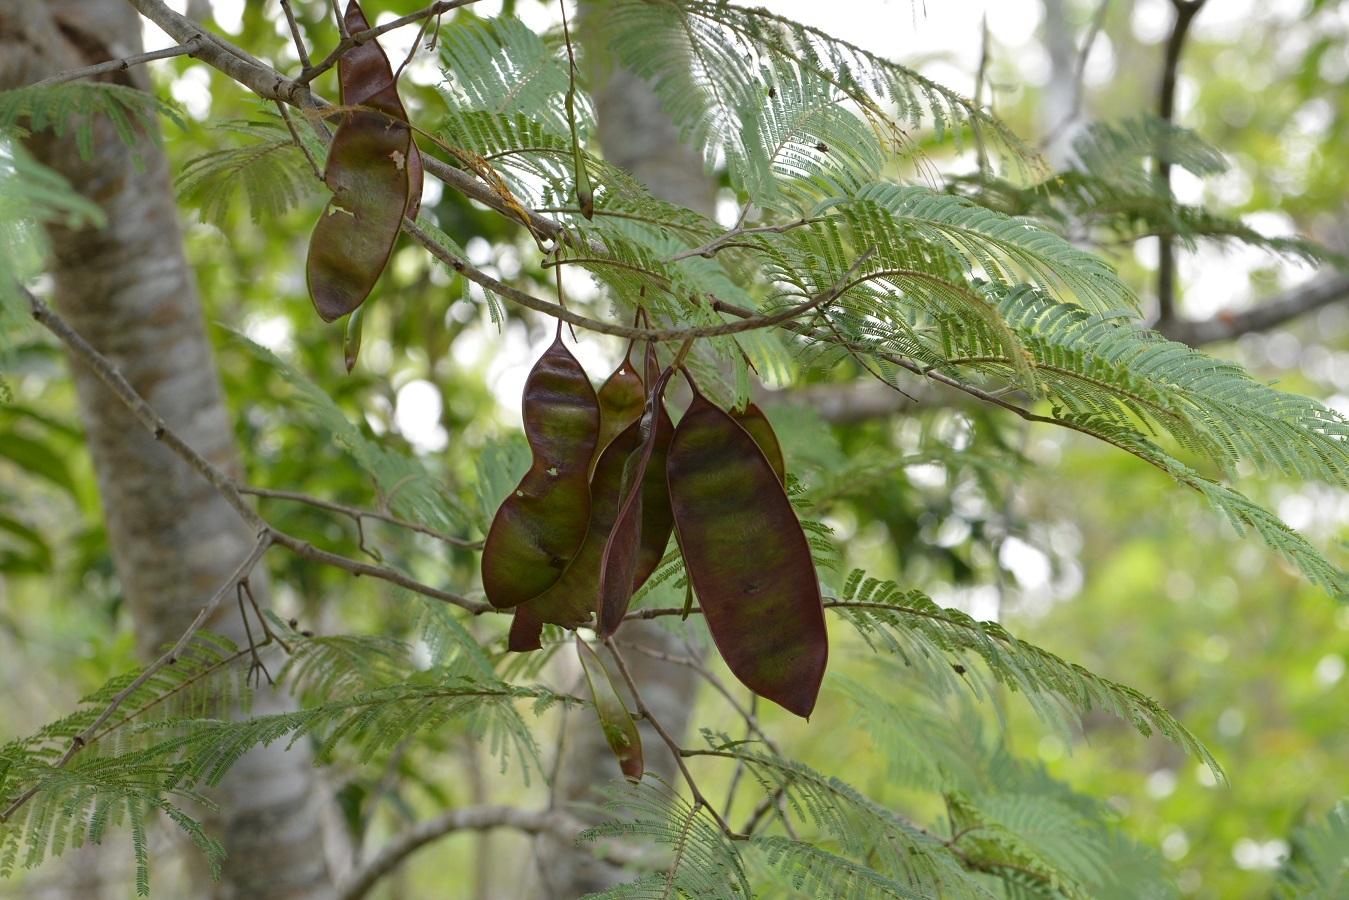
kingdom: Plantae
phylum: Tracheophyta
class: Magnoliopsida
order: Fabales
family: Fabaceae
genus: Lysiloma
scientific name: Lysiloma auritum
